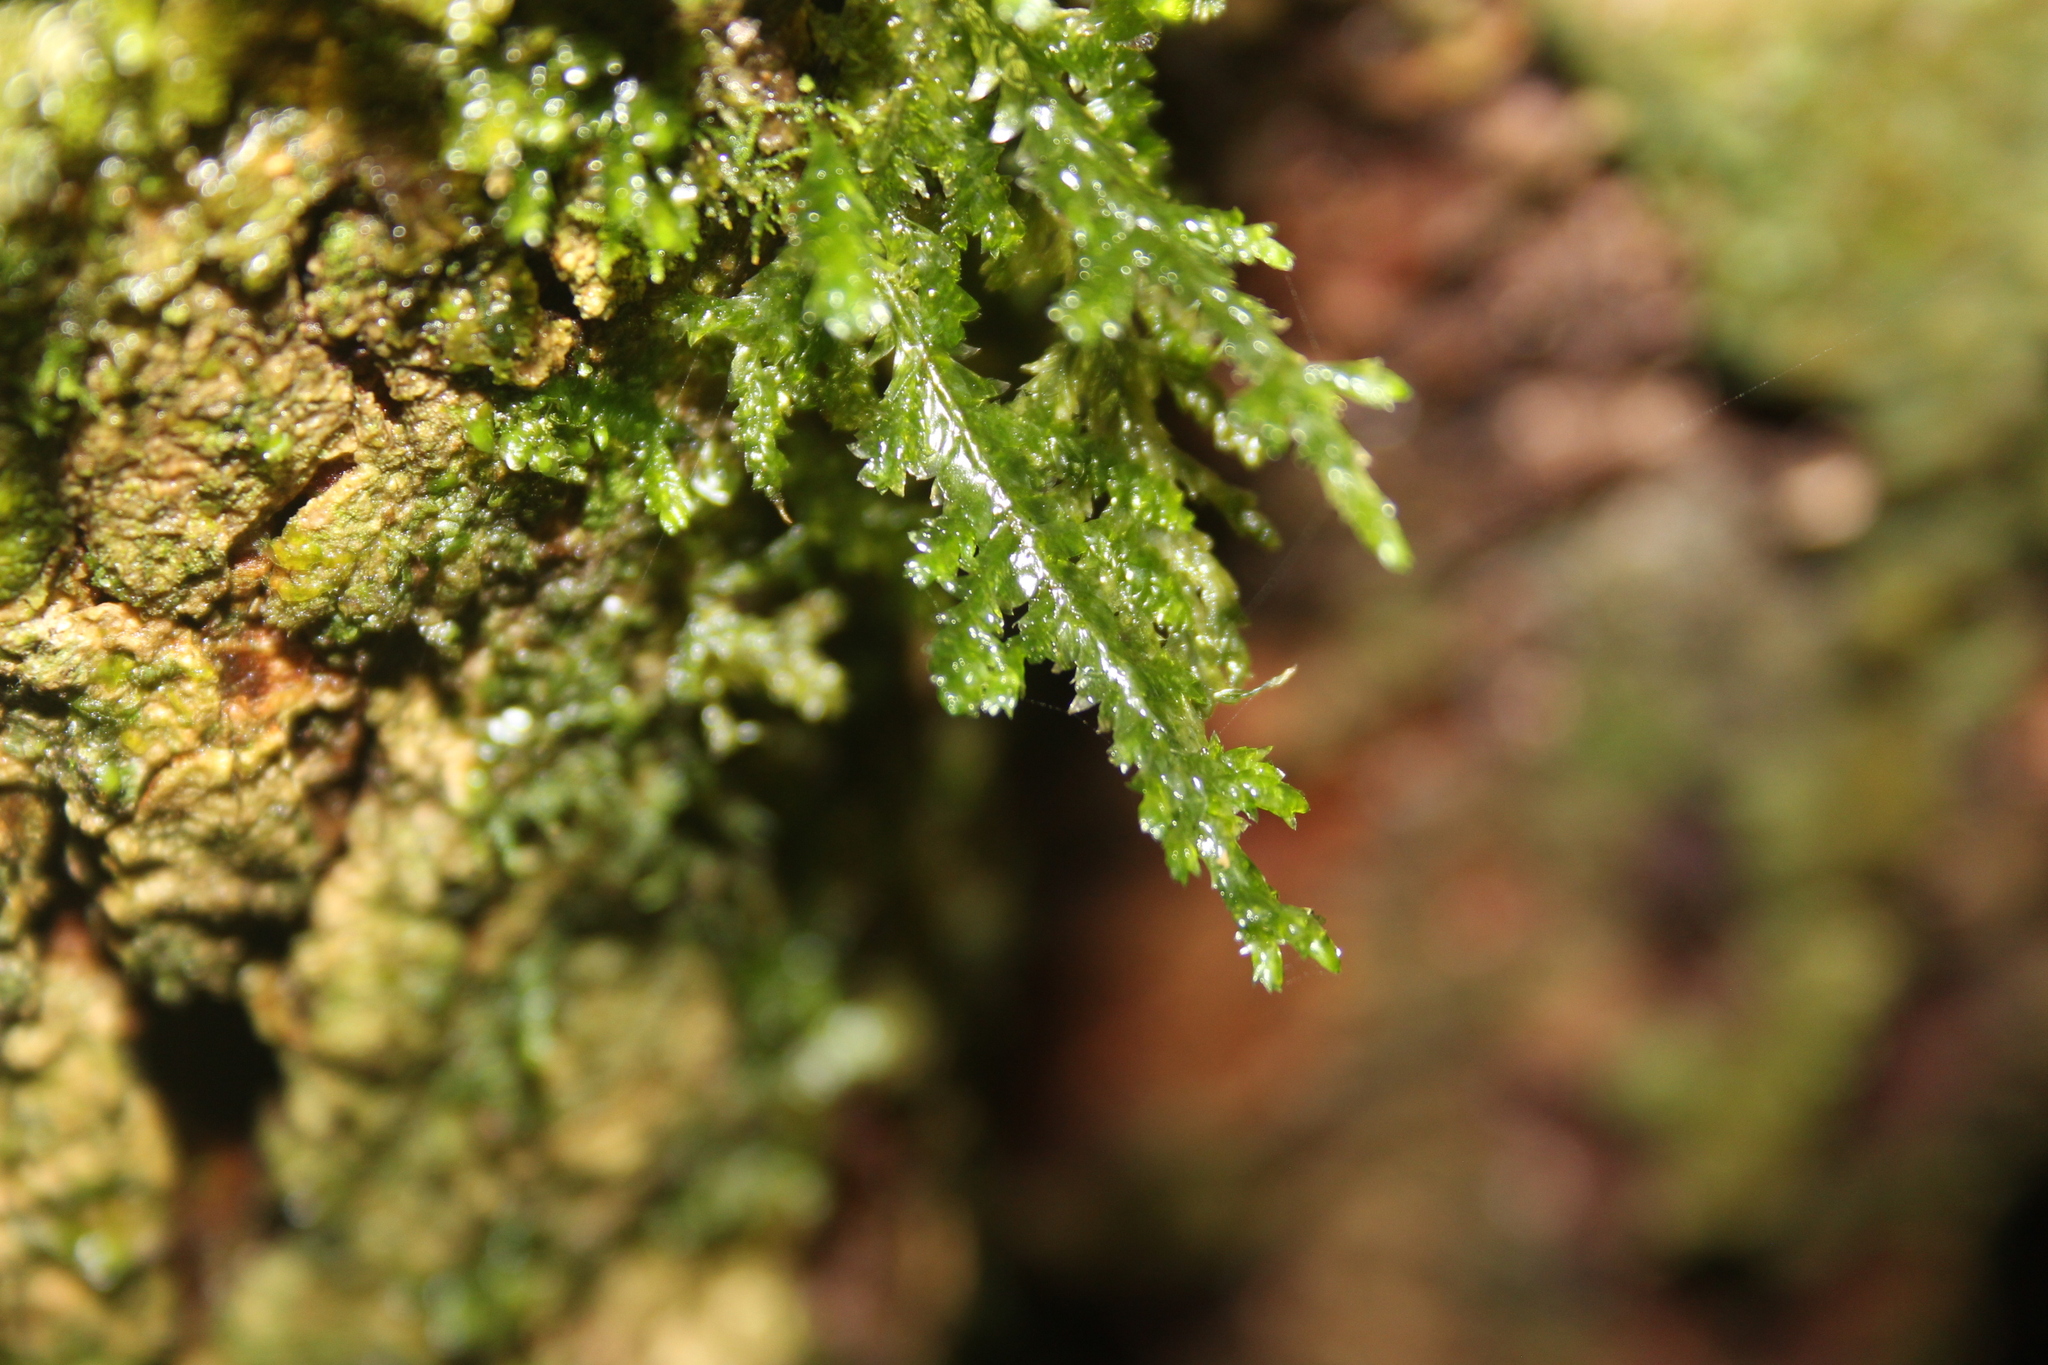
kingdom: Plantae
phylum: Bryophyta
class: Bryopsida
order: Hypnales
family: Trachylomataceae
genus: Trachyloma
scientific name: Trachyloma diversinerve
